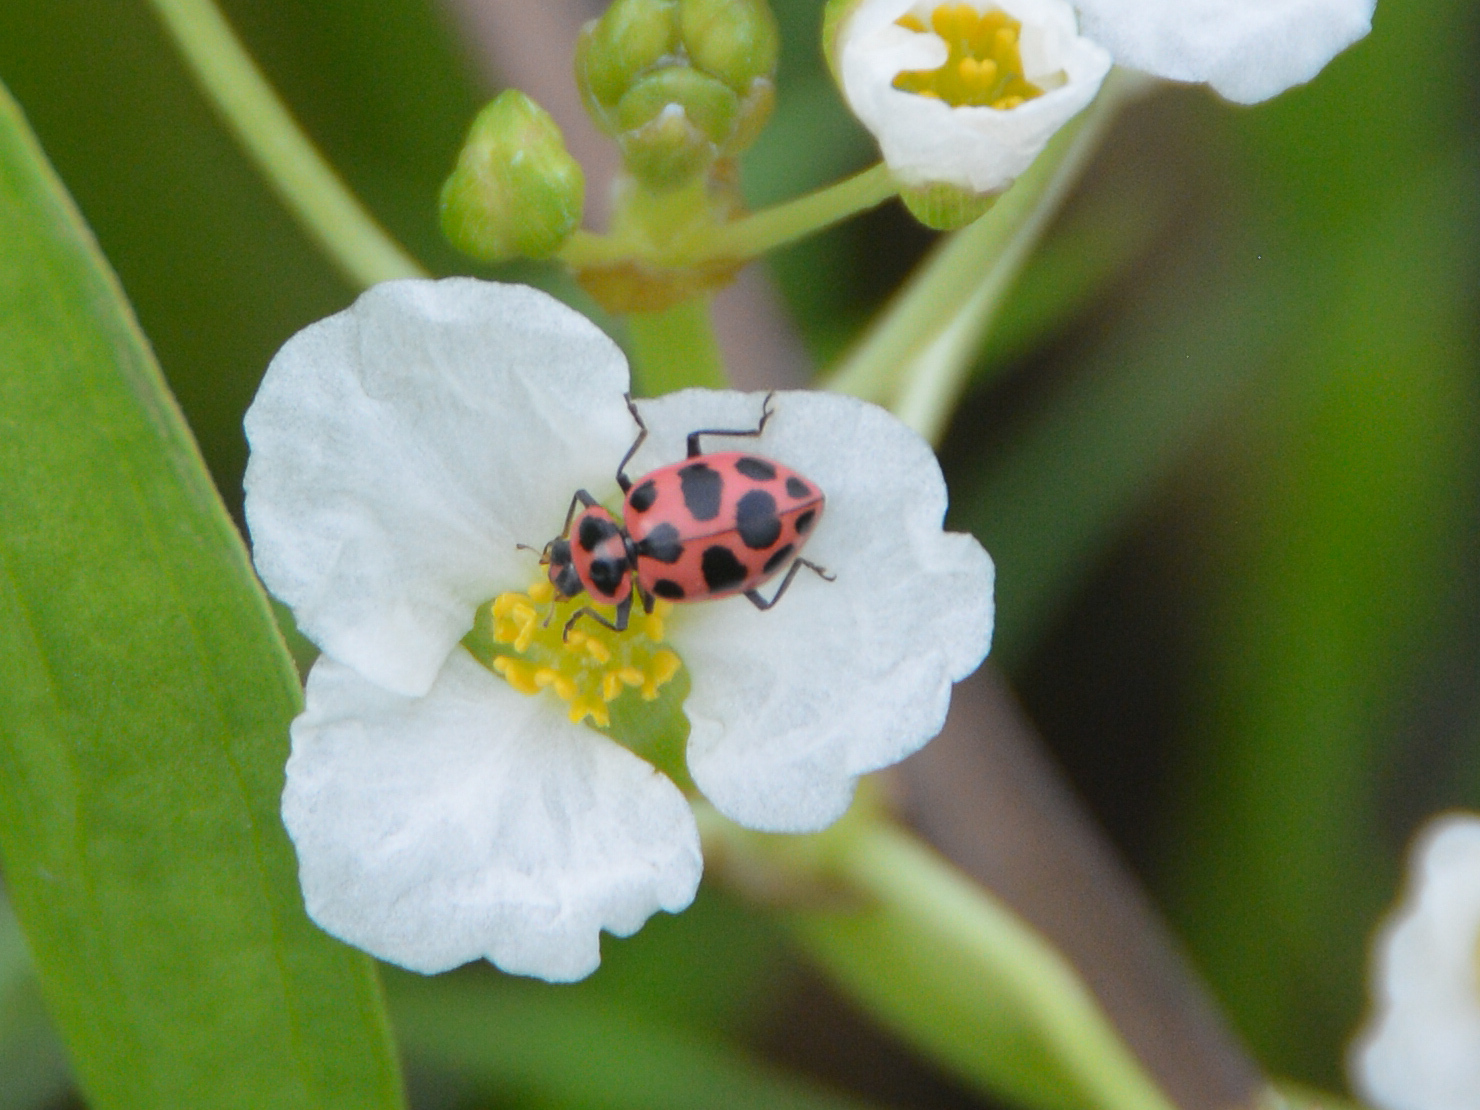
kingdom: Animalia
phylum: Arthropoda
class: Insecta
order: Coleoptera
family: Coccinellidae
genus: Coleomegilla
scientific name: Coleomegilla maculata
